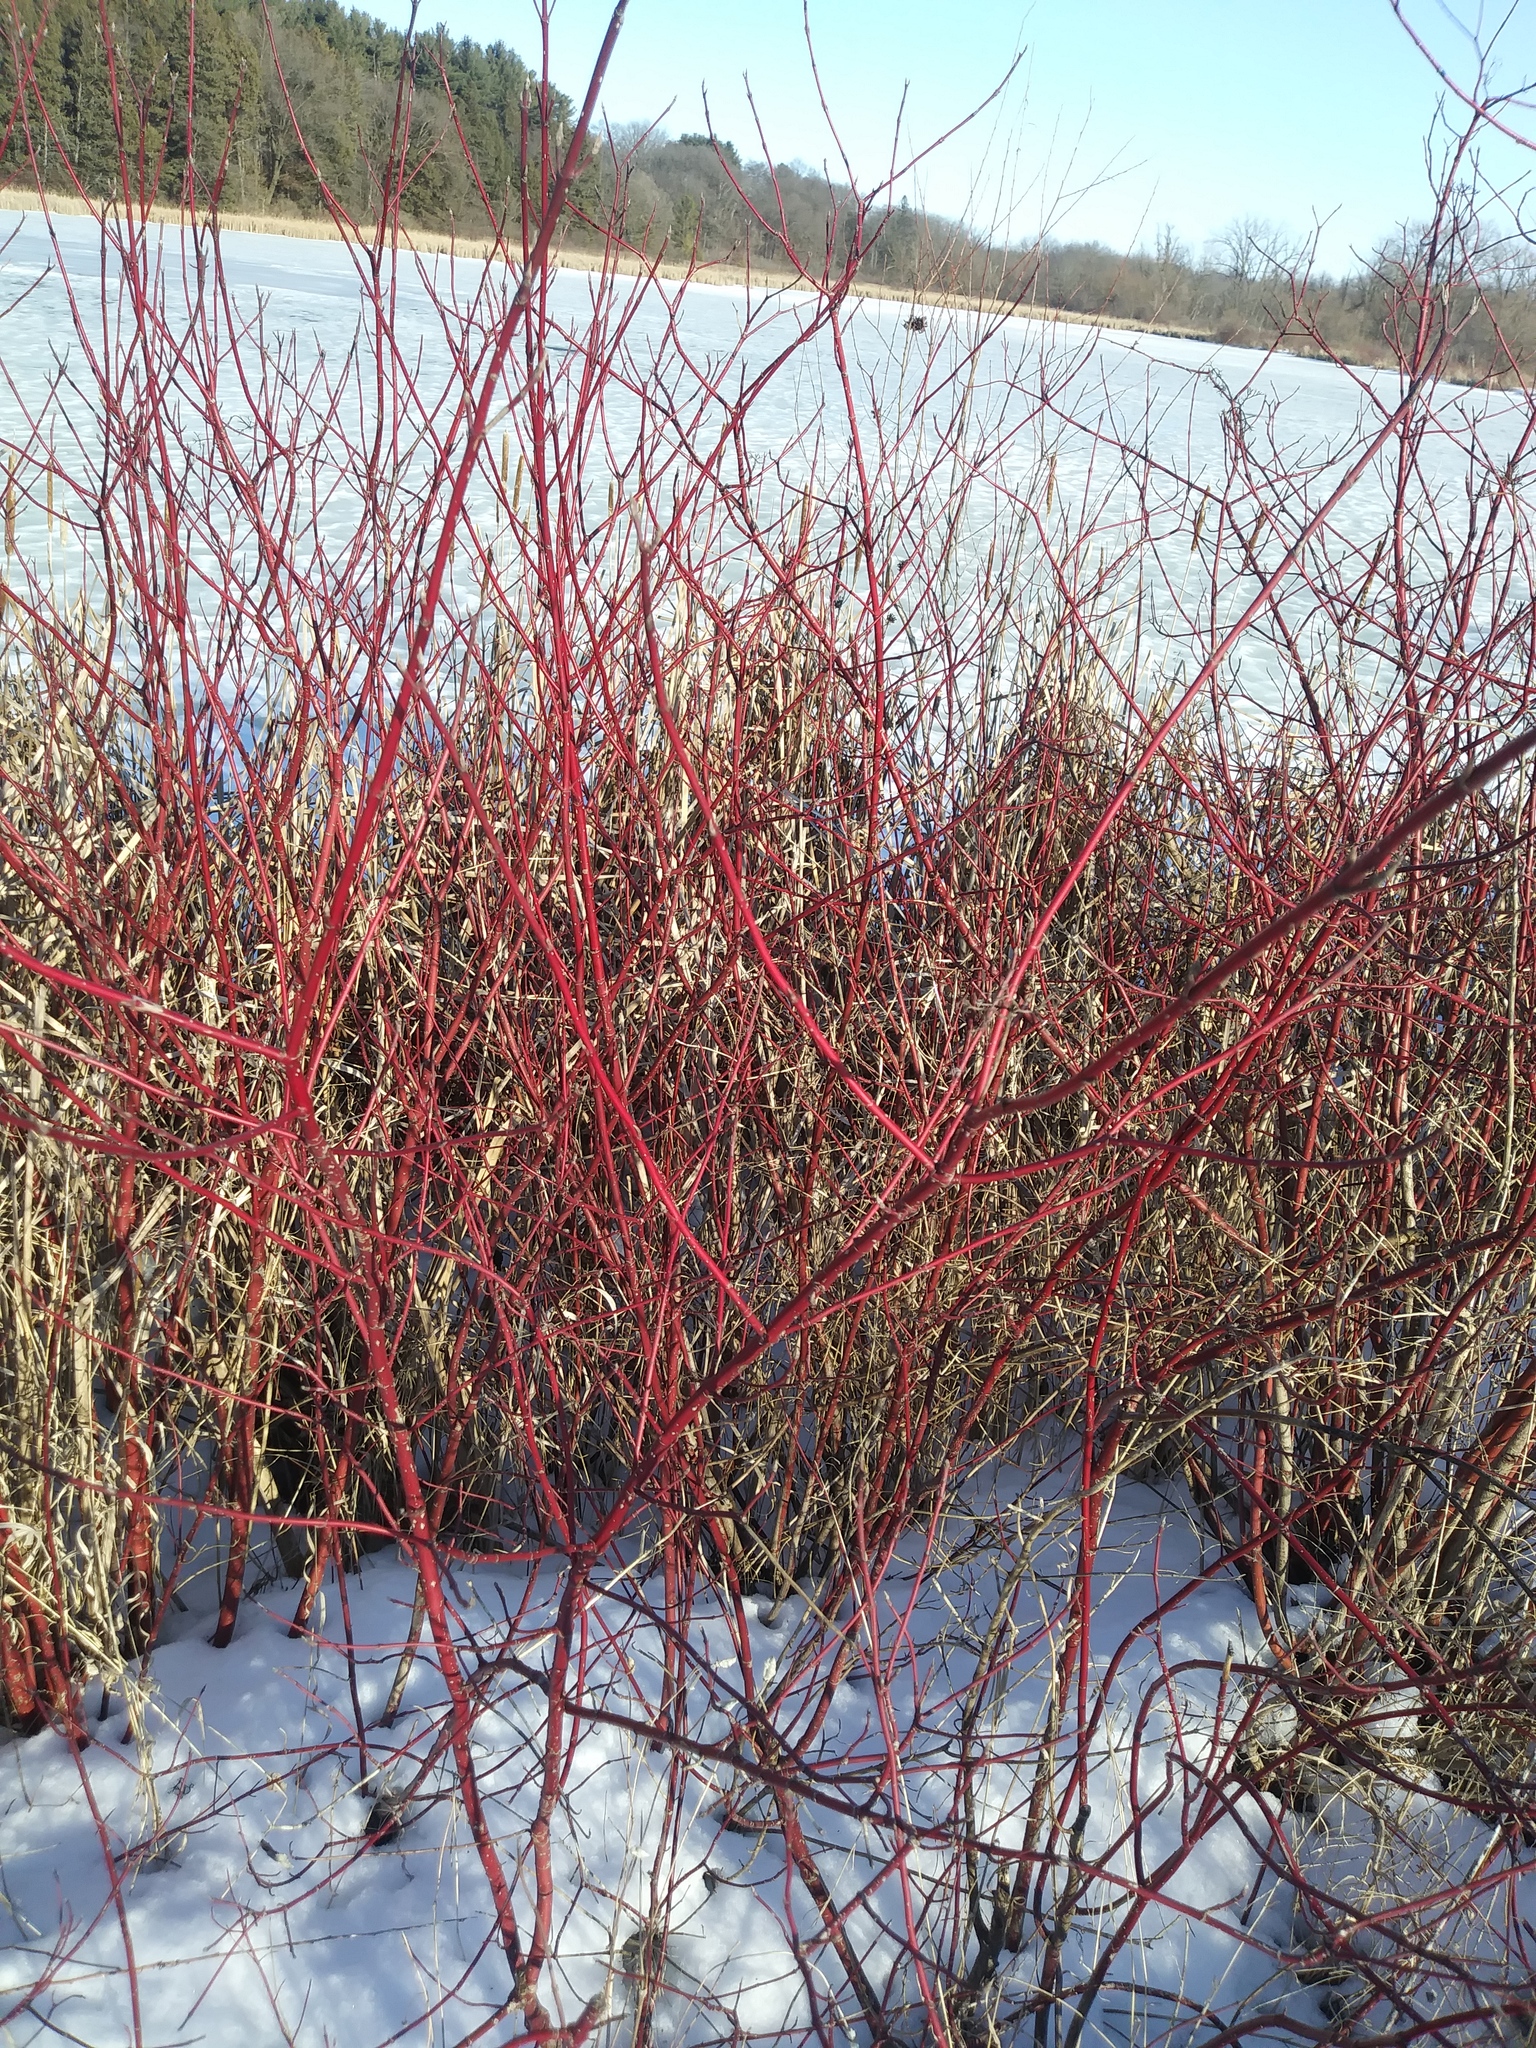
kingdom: Plantae
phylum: Tracheophyta
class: Magnoliopsida
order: Cornales
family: Cornaceae
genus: Cornus
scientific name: Cornus sericea
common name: Red-osier dogwood
